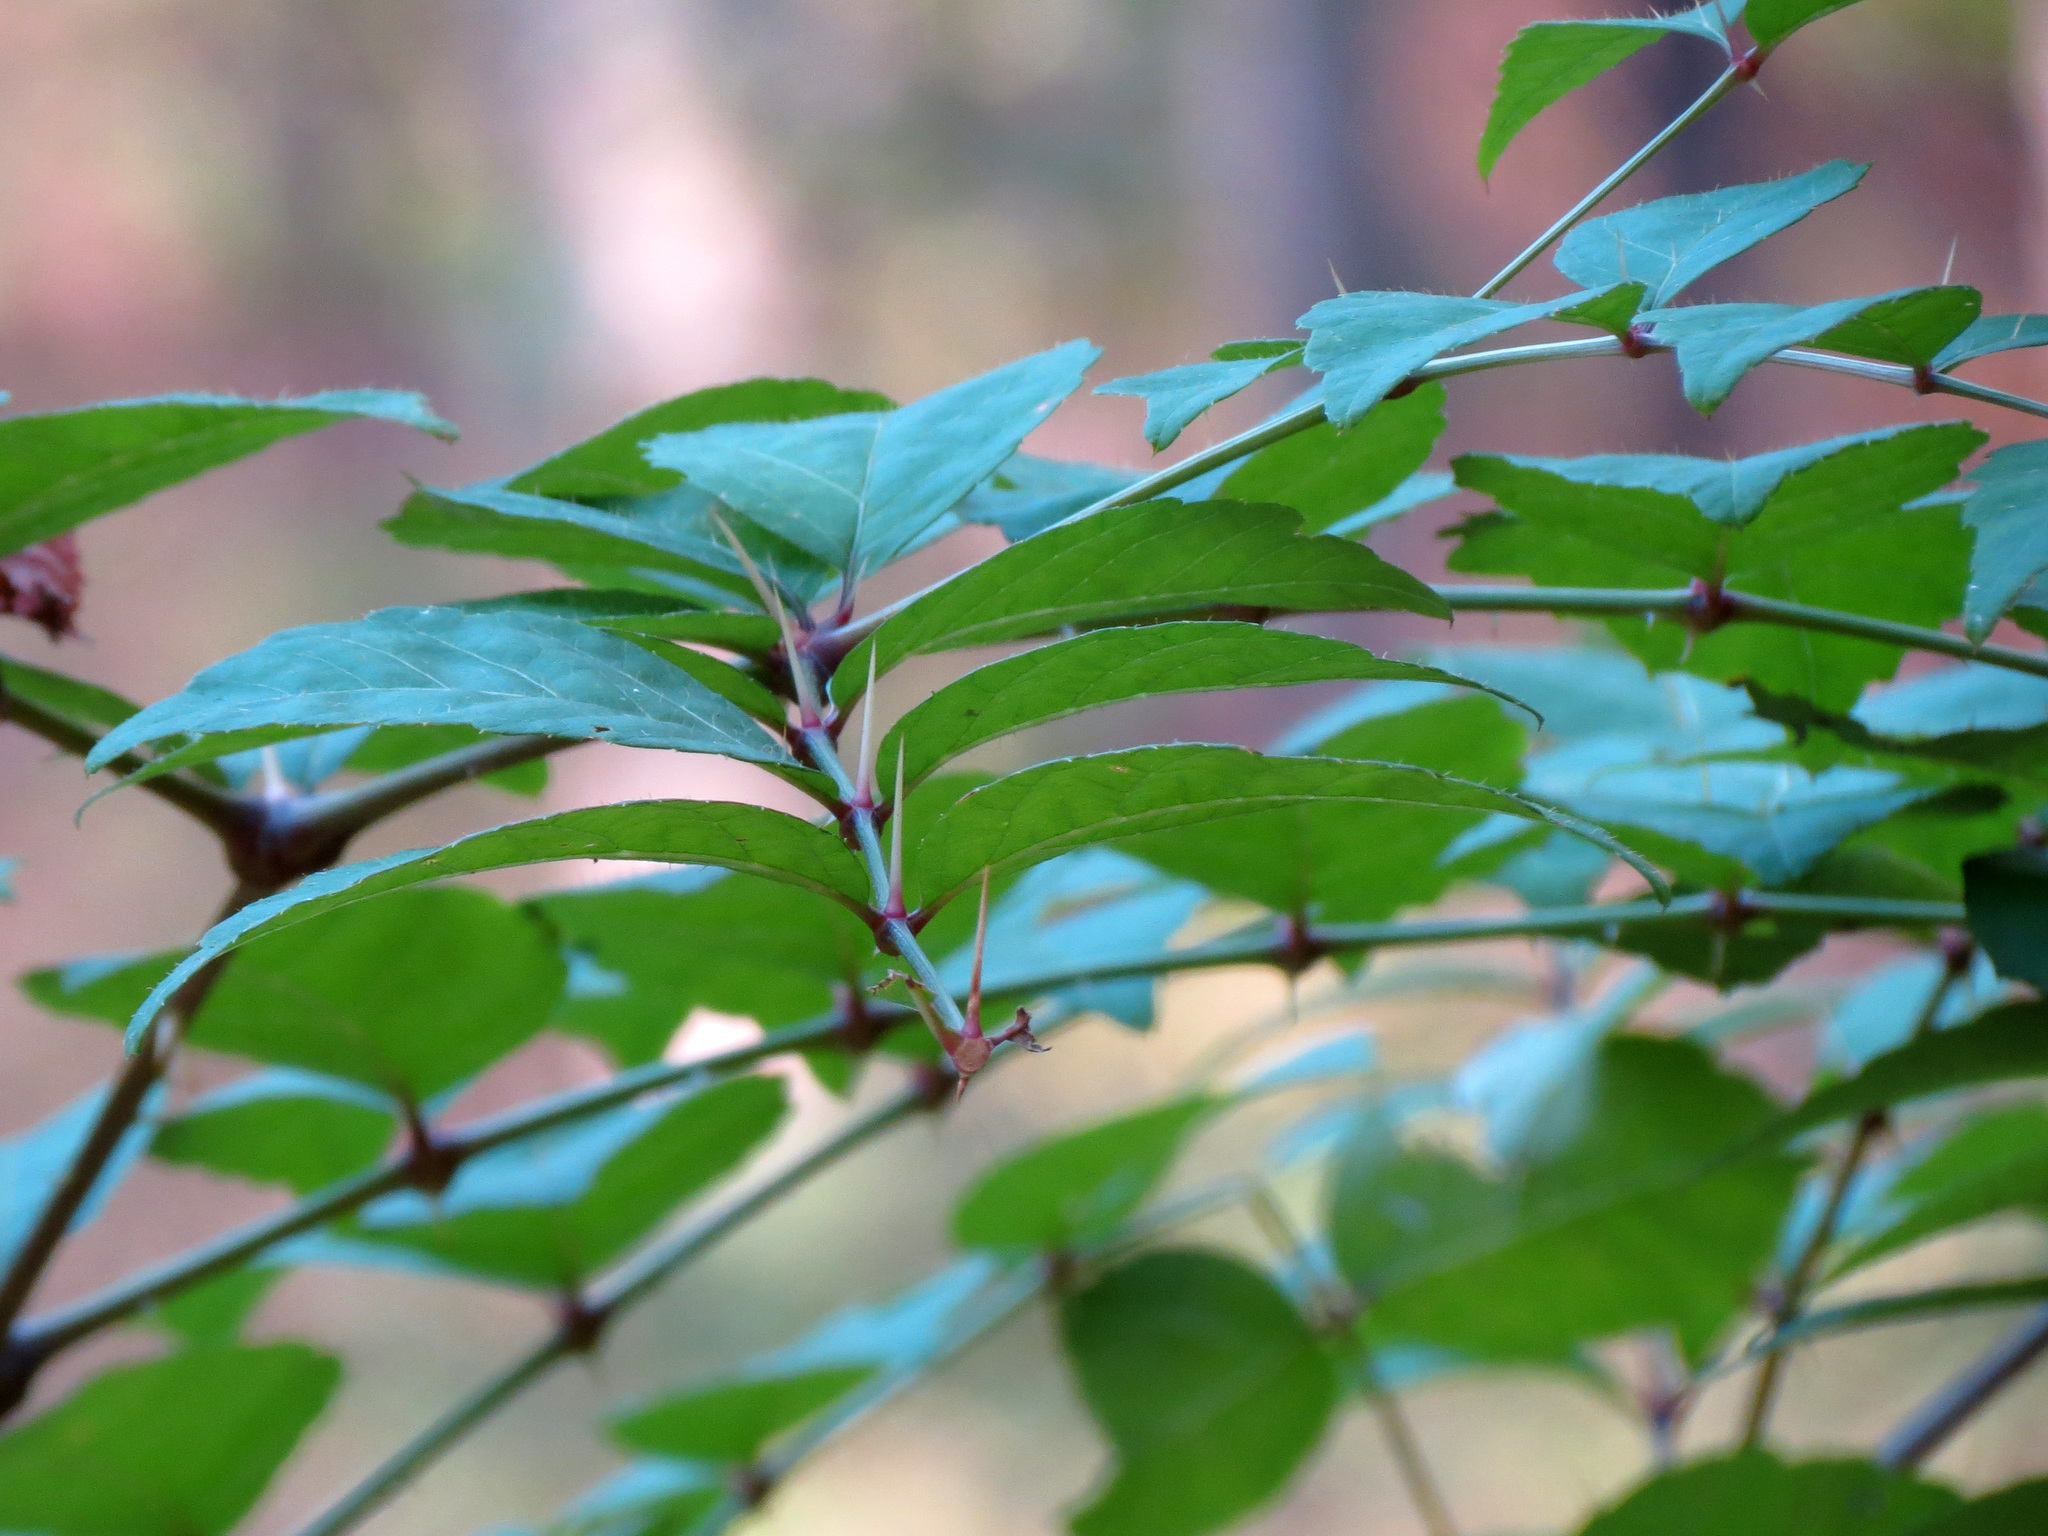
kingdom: Plantae
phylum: Tracheophyta
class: Magnoliopsida
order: Apiales
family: Araliaceae
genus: Aralia
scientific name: Aralia spinosa
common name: Hercules'-club
